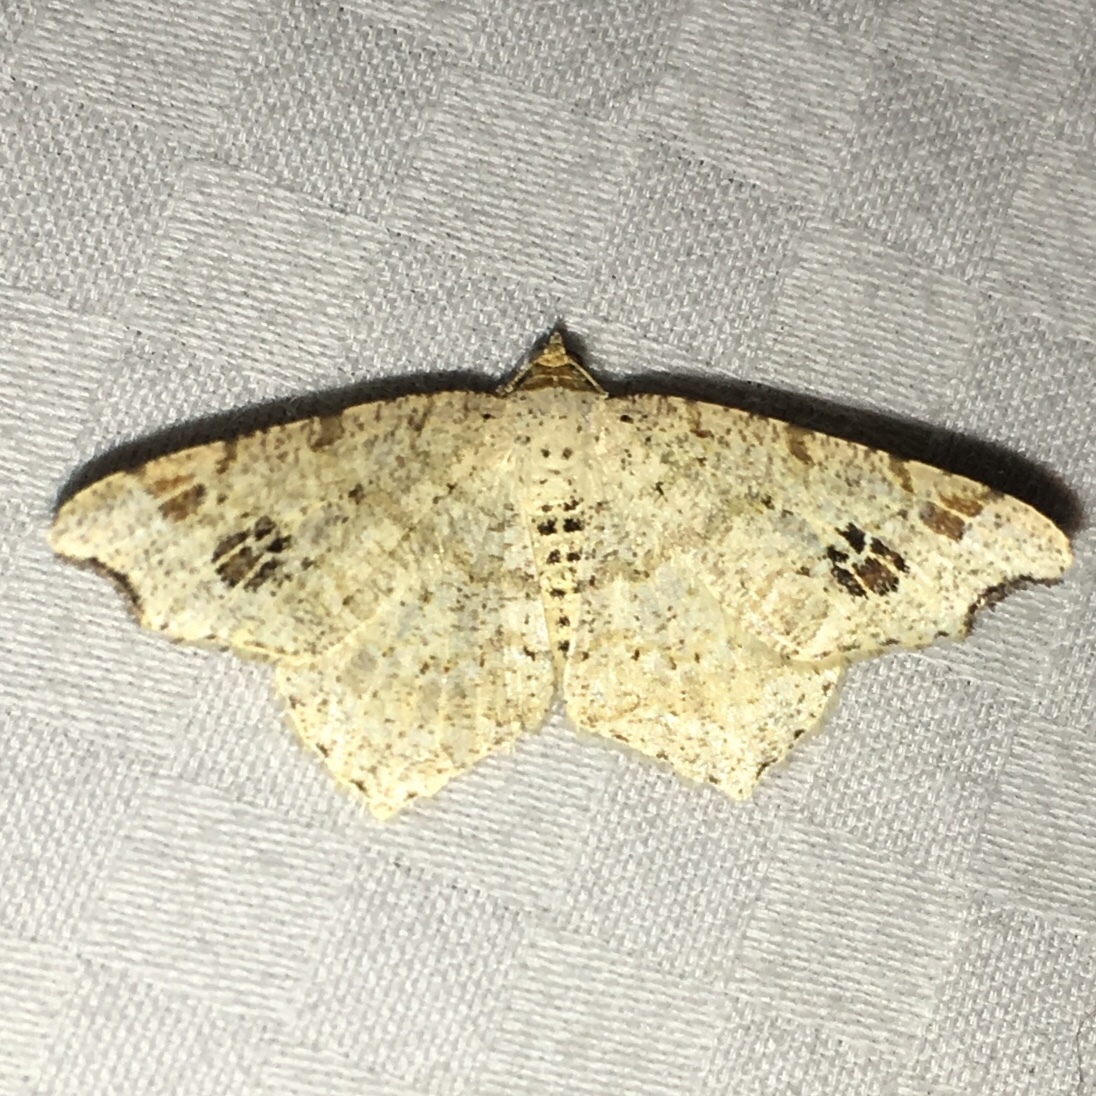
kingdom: Animalia
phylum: Arthropoda
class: Insecta
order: Lepidoptera
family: Geometridae
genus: Macaria
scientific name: Macaria aemulataria
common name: Common angle
